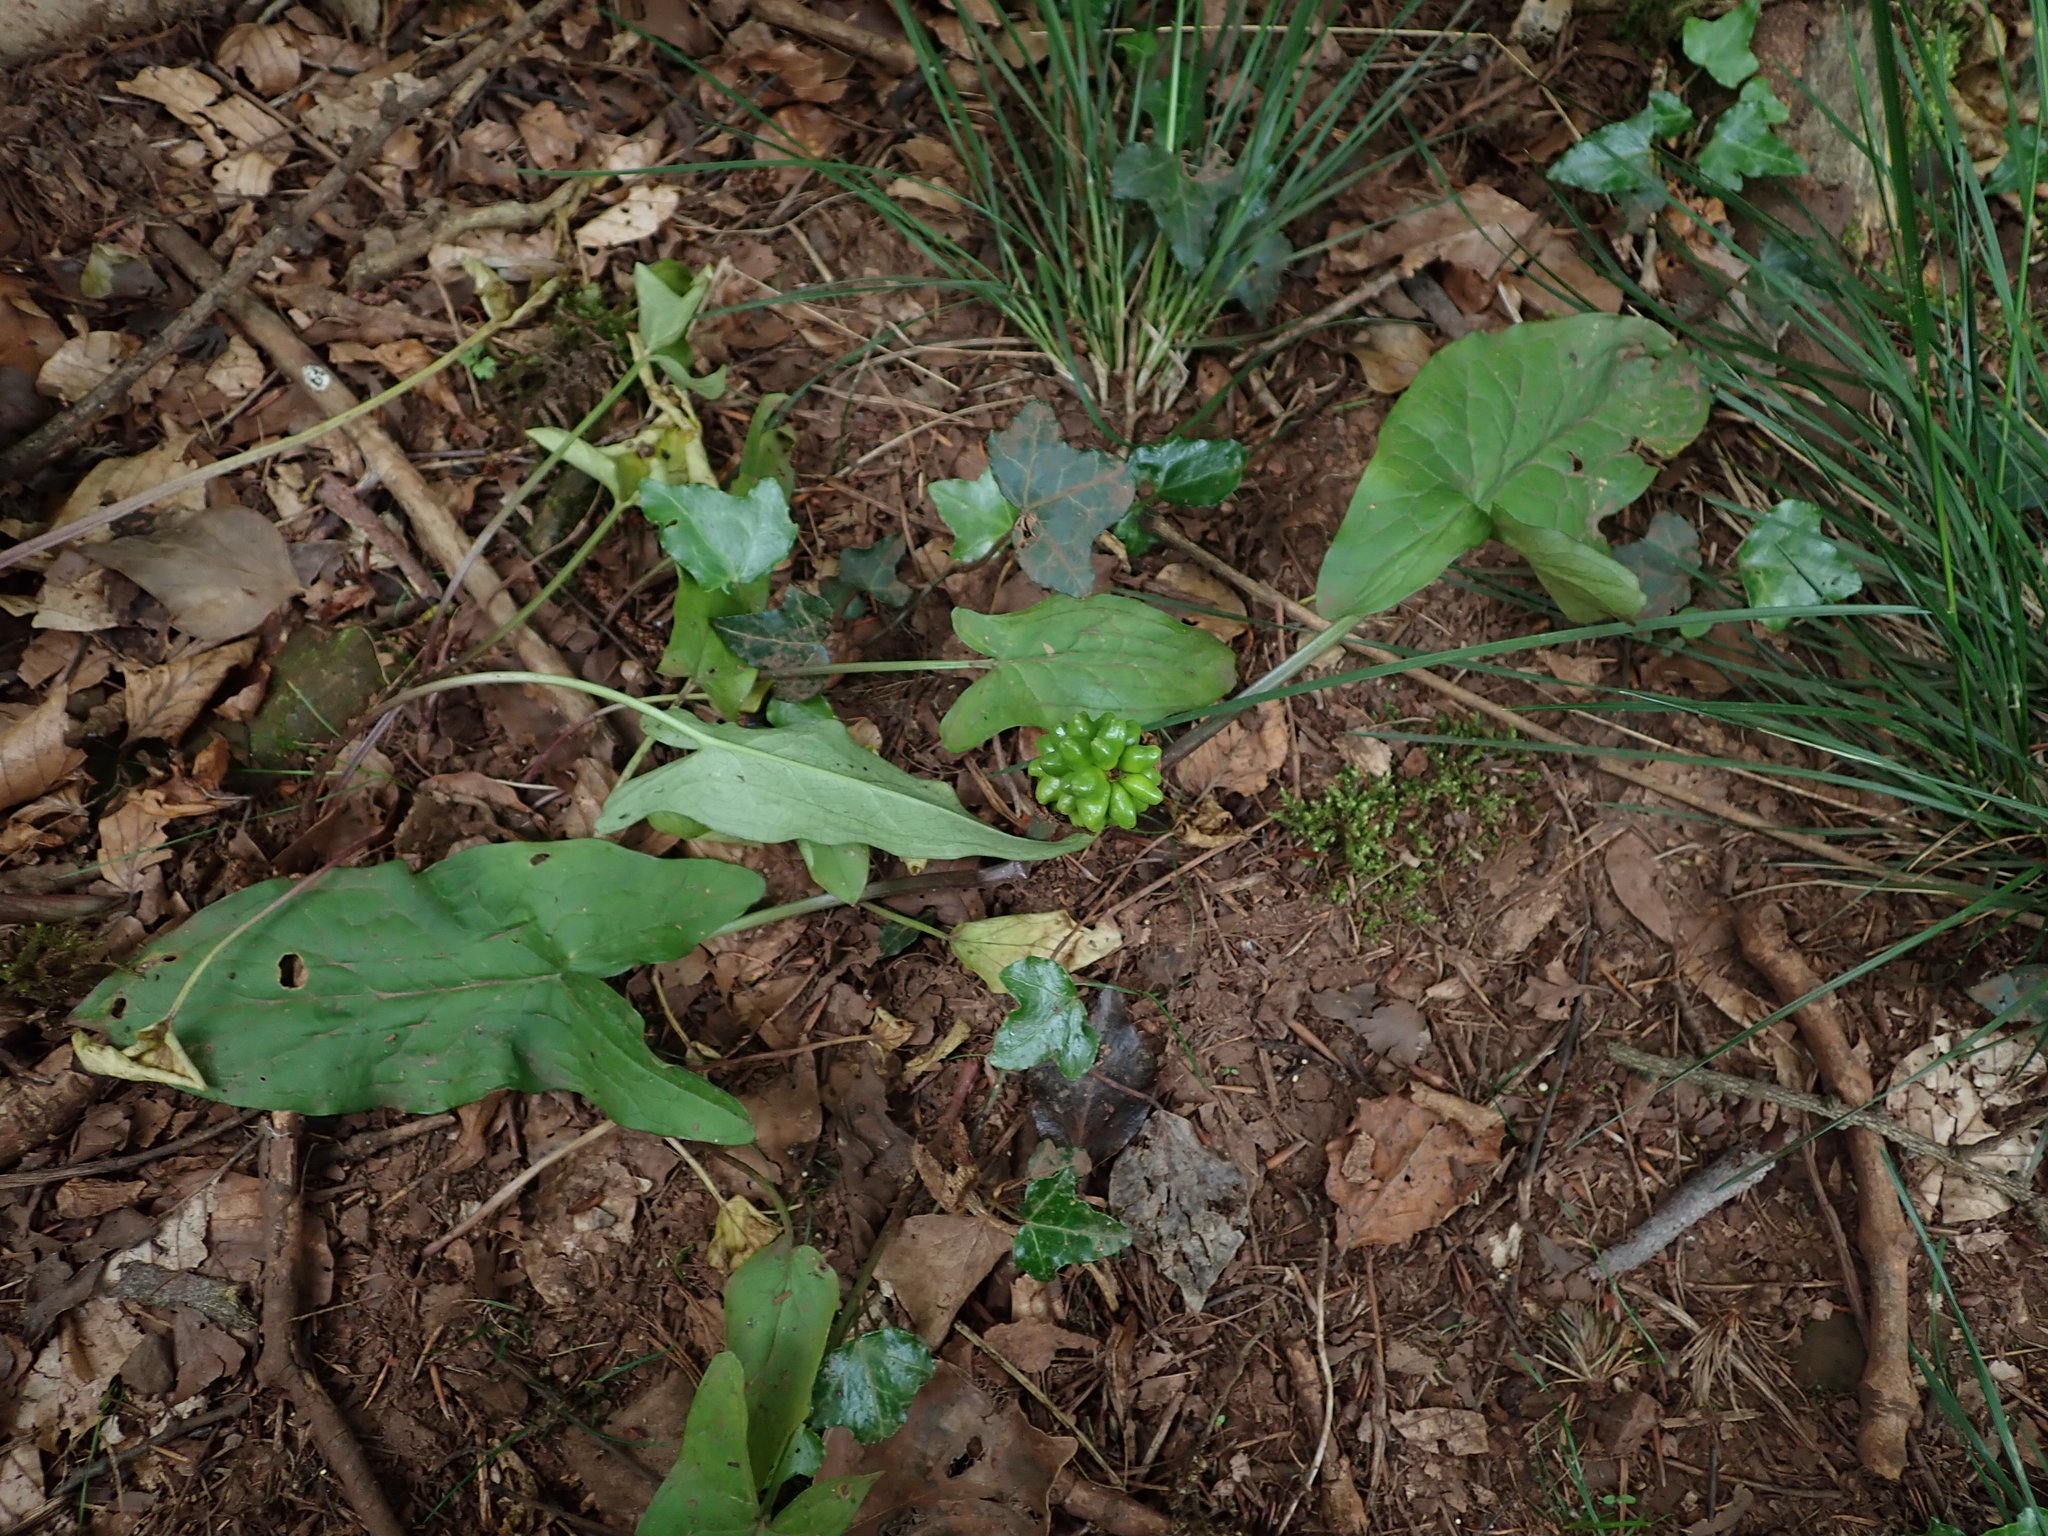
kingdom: Plantae
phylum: Tracheophyta
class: Liliopsida
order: Alismatales
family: Araceae
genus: Arum
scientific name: Arum maculatum
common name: Lords-and-ladies
